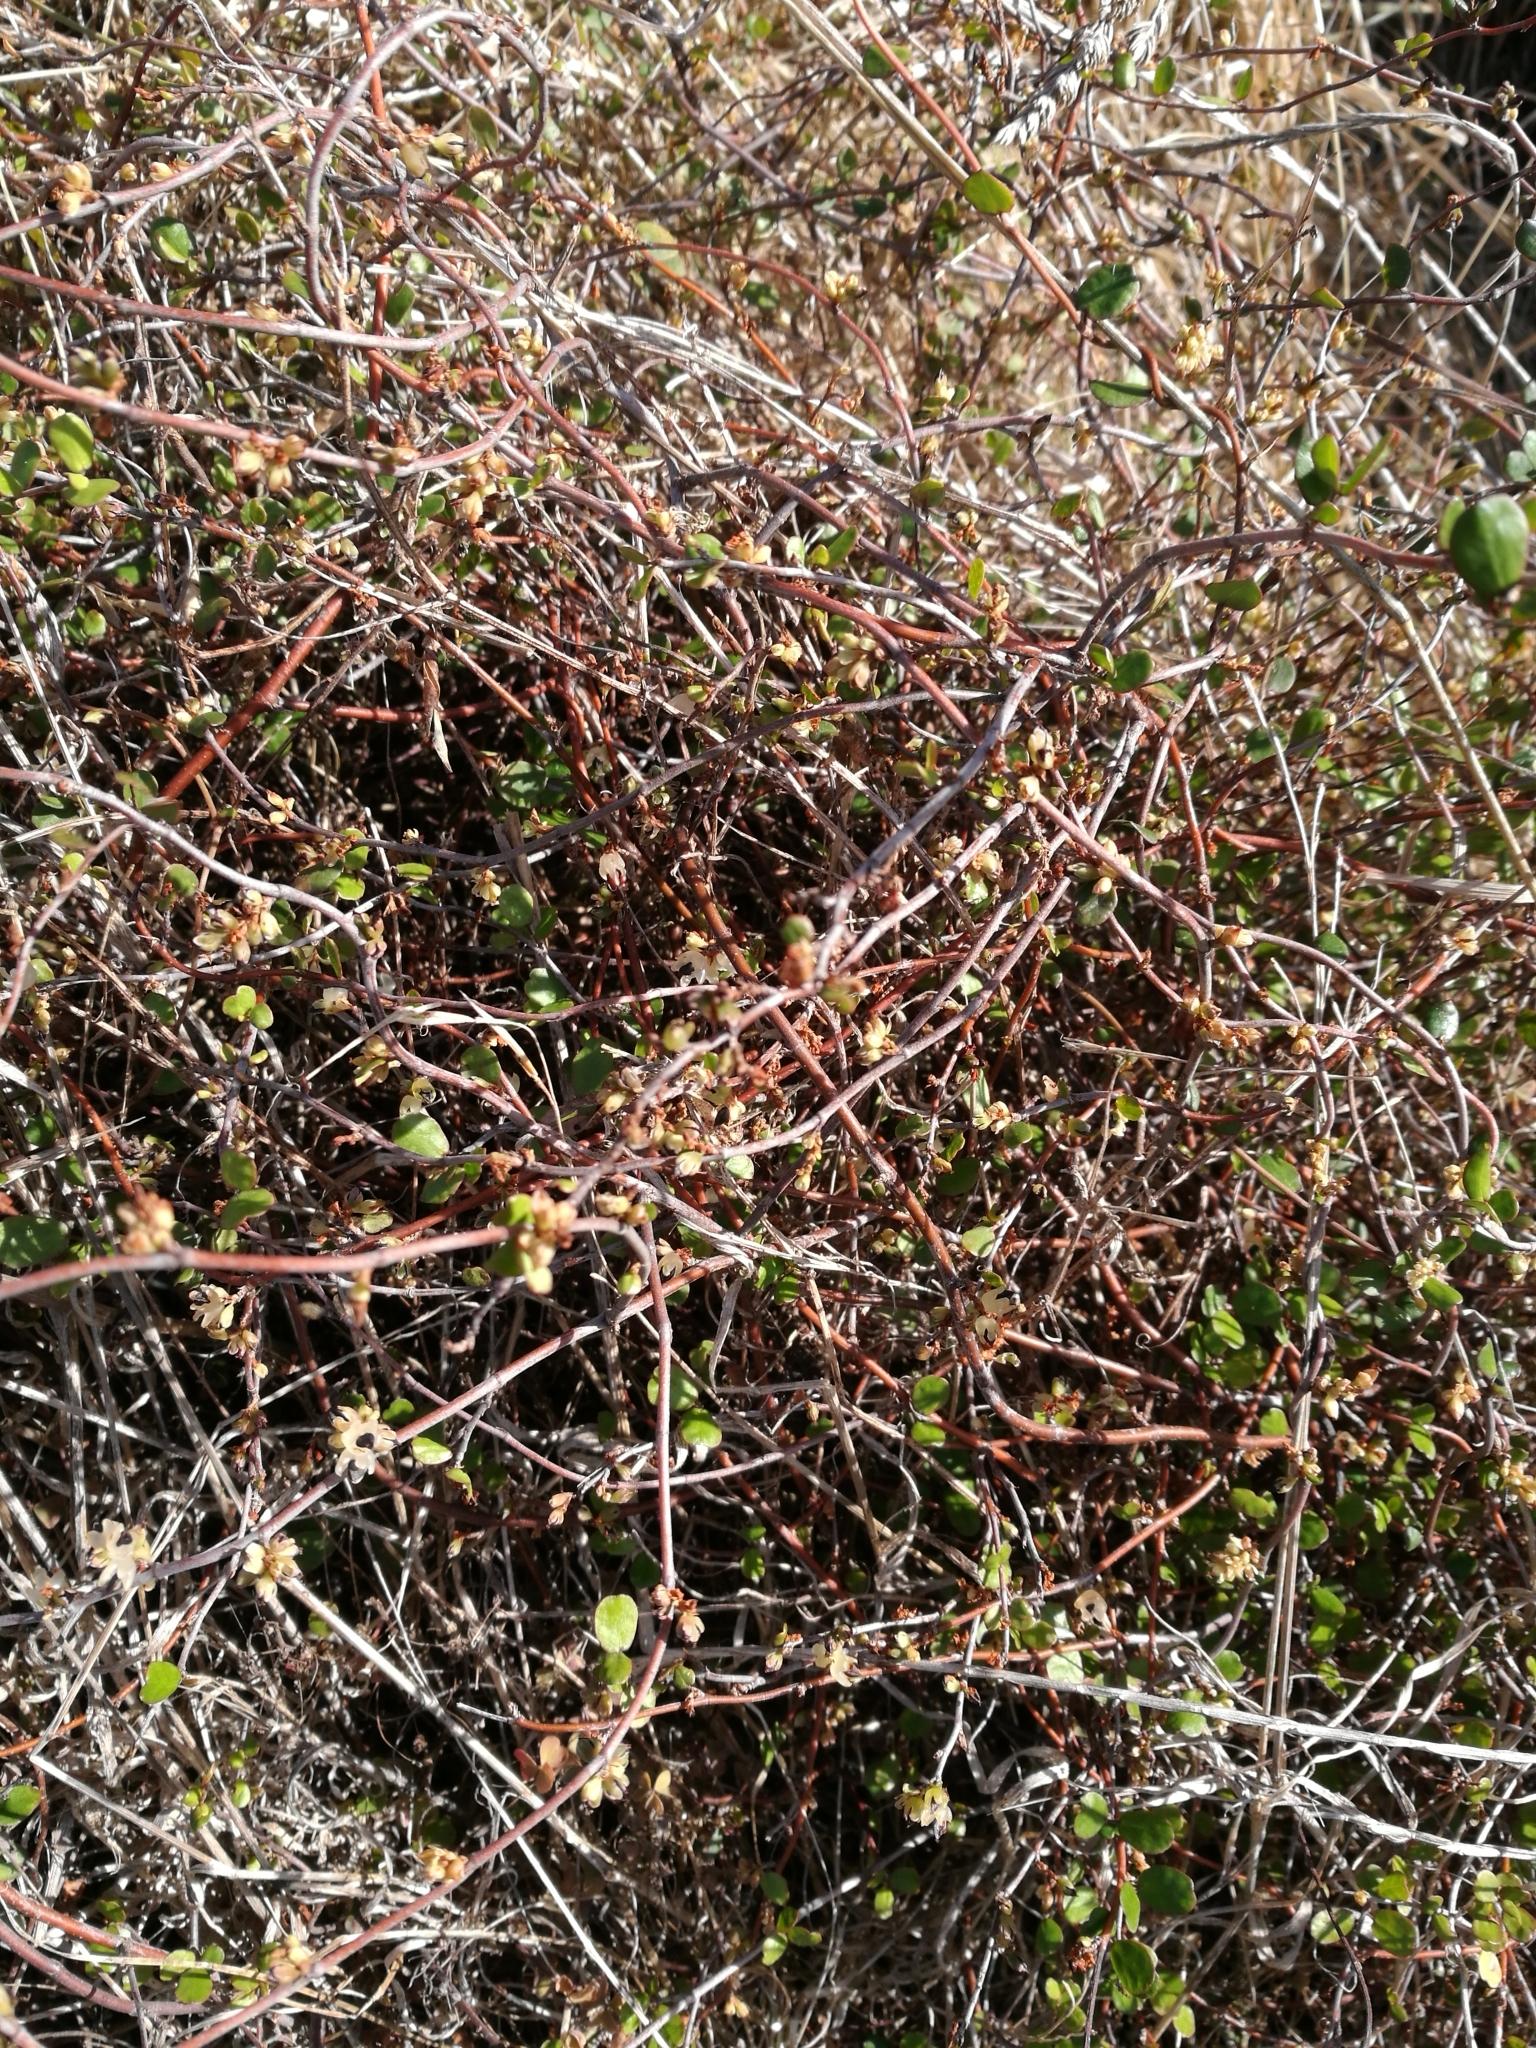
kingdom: Plantae
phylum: Tracheophyta
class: Magnoliopsida
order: Caryophyllales
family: Polygonaceae
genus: Muehlenbeckia
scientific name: Muehlenbeckia complexa
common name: Wireplant
